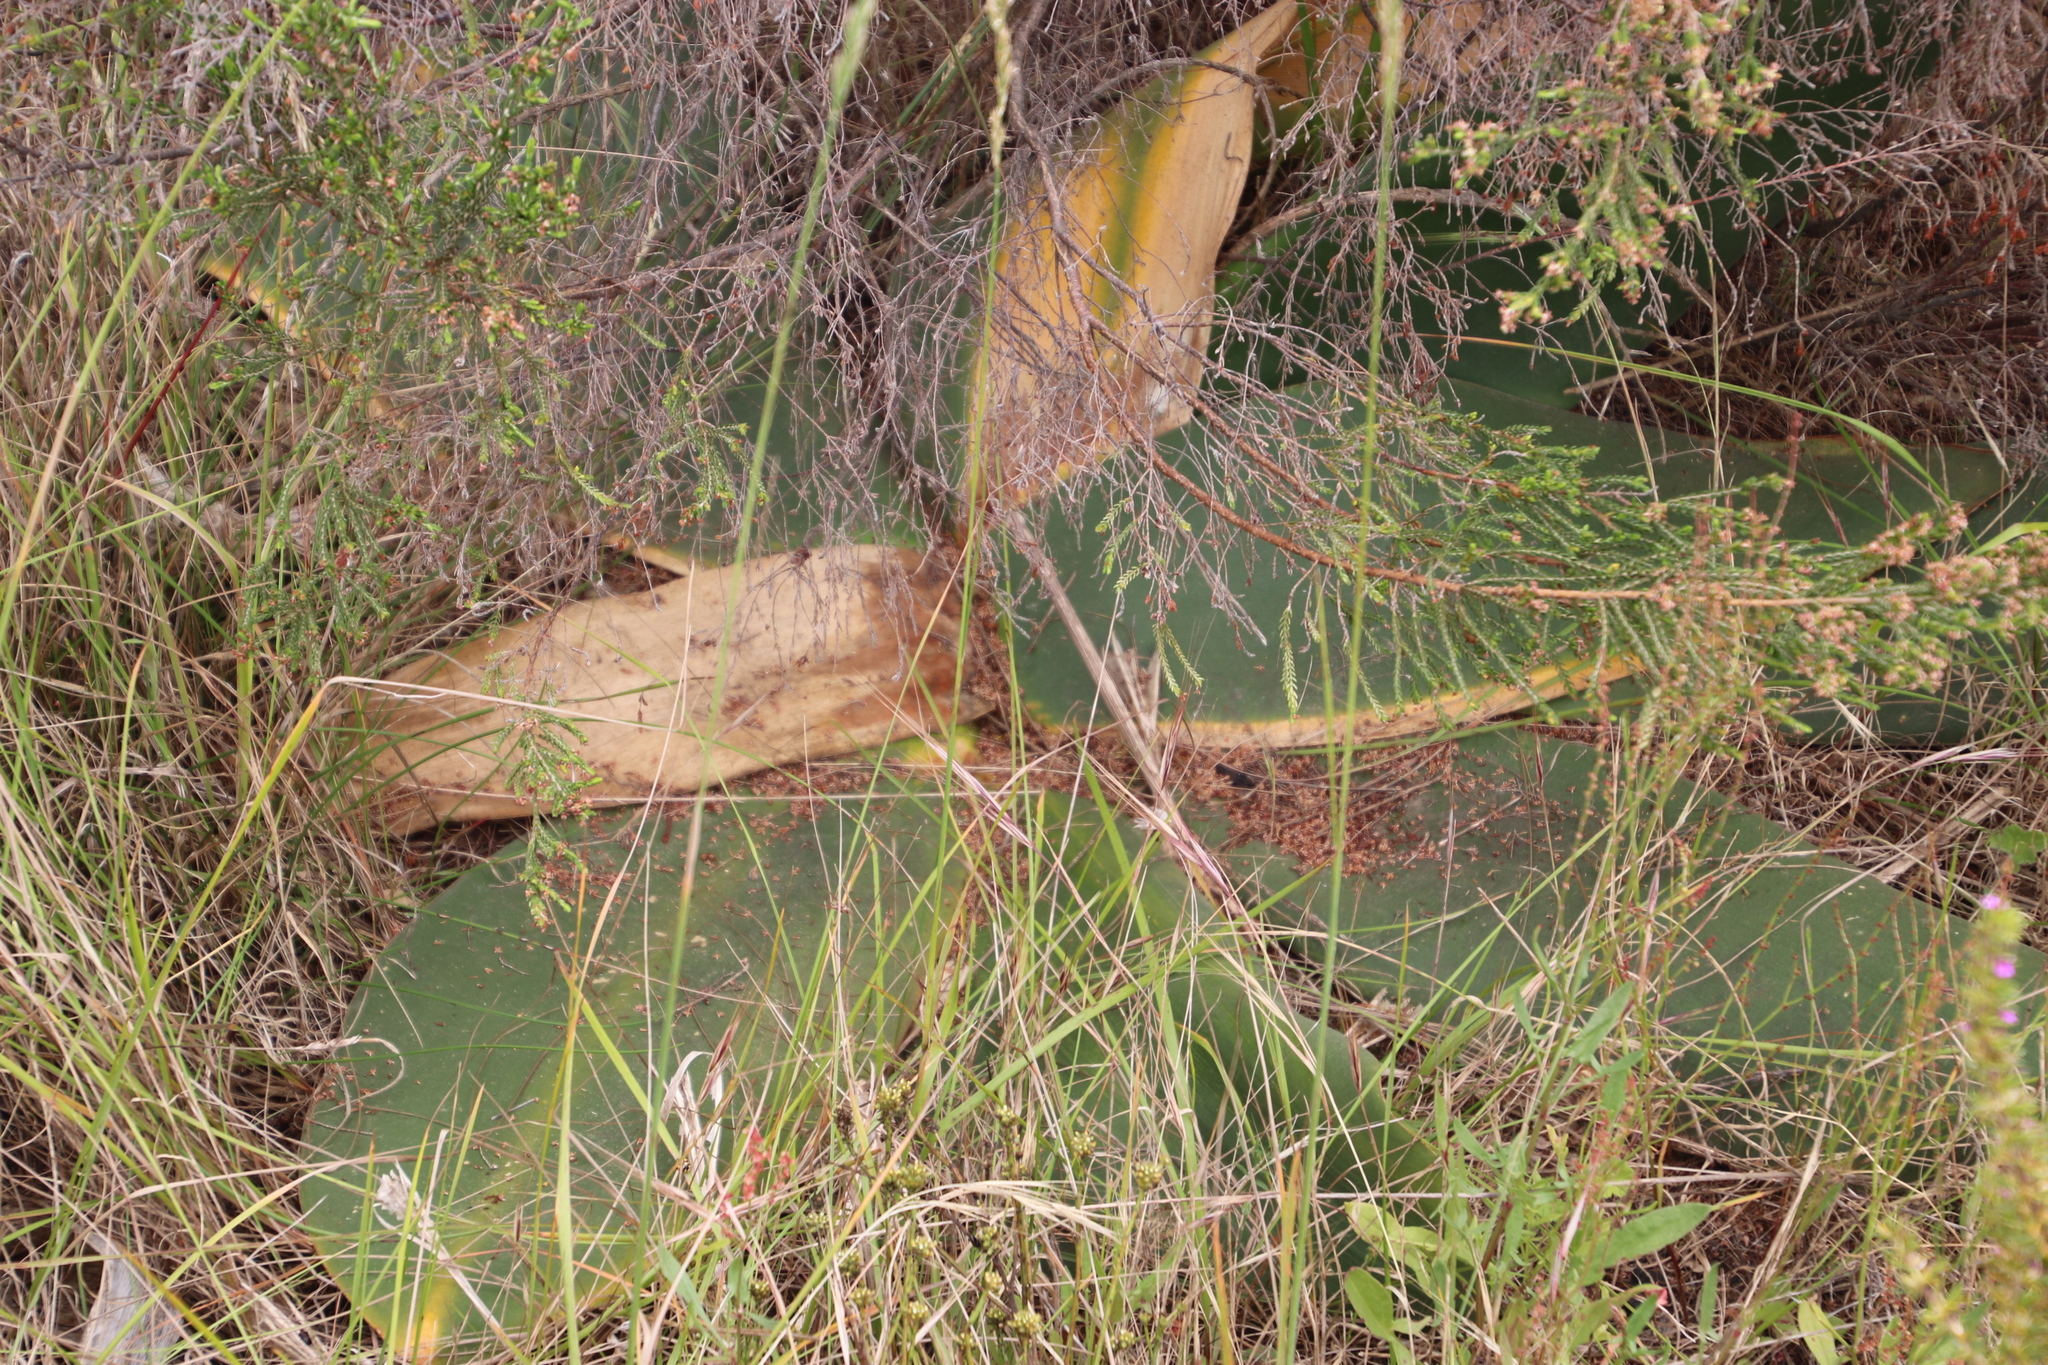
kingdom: Plantae
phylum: Tracheophyta
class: Liliopsida
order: Asparagales
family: Amaryllidaceae
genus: Brunsvigia
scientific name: Brunsvigia orientalis
